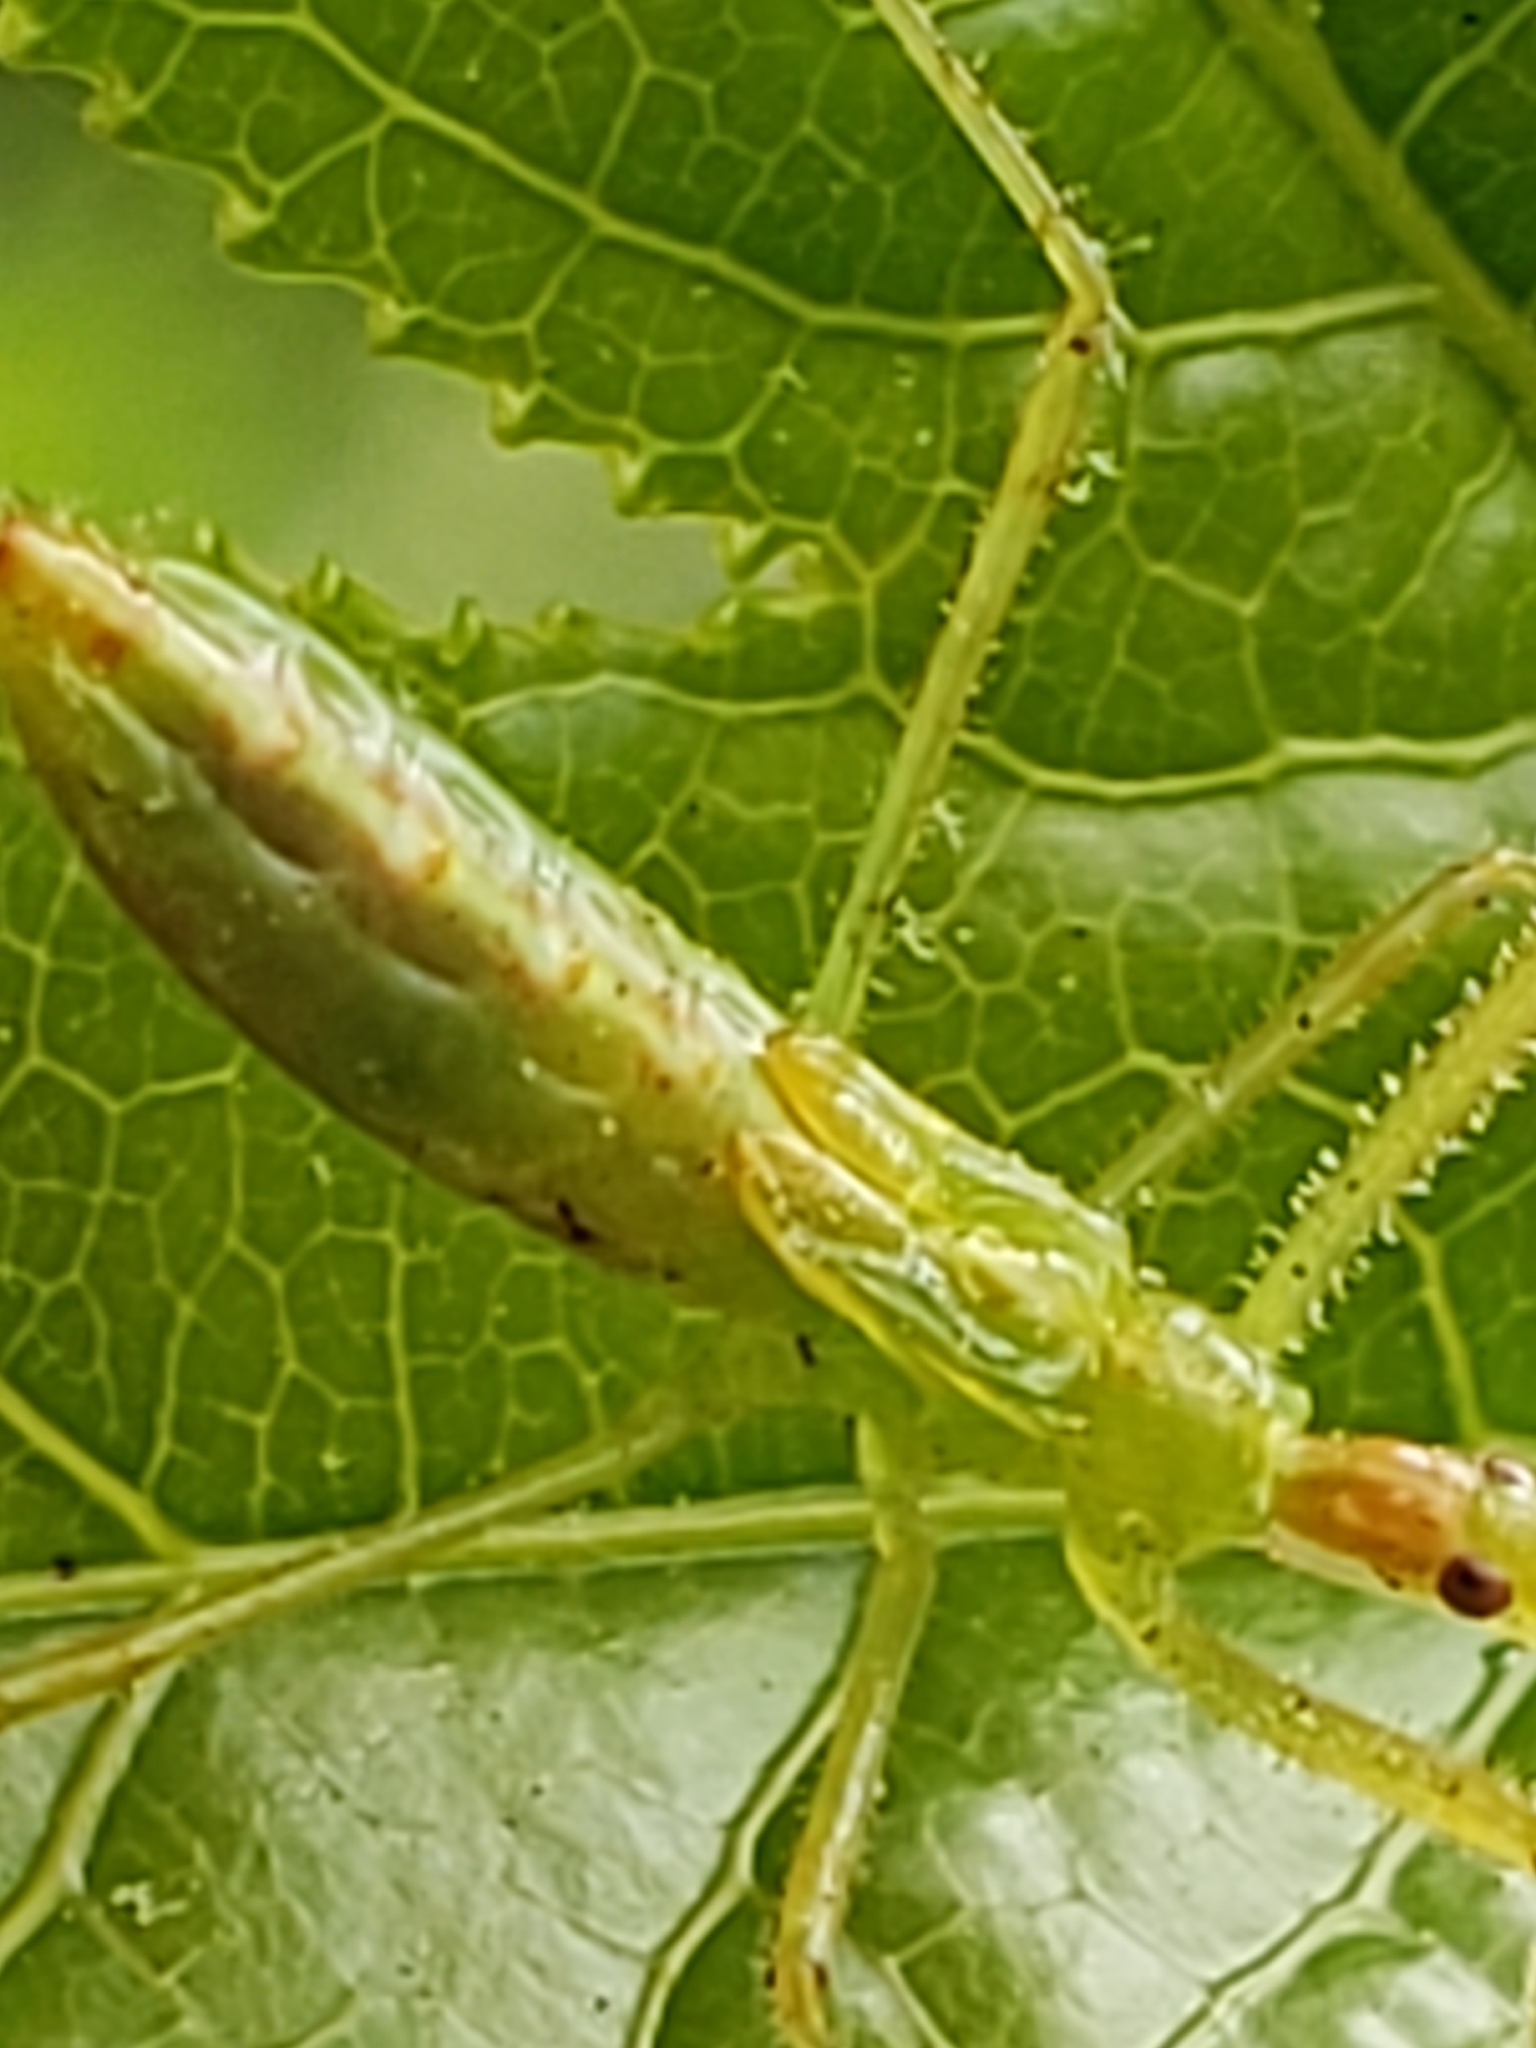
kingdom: Animalia
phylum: Arthropoda
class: Insecta
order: Hemiptera
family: Reduviidae
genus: Zelus
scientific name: Zelus luridus
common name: Pale green assassin bug
